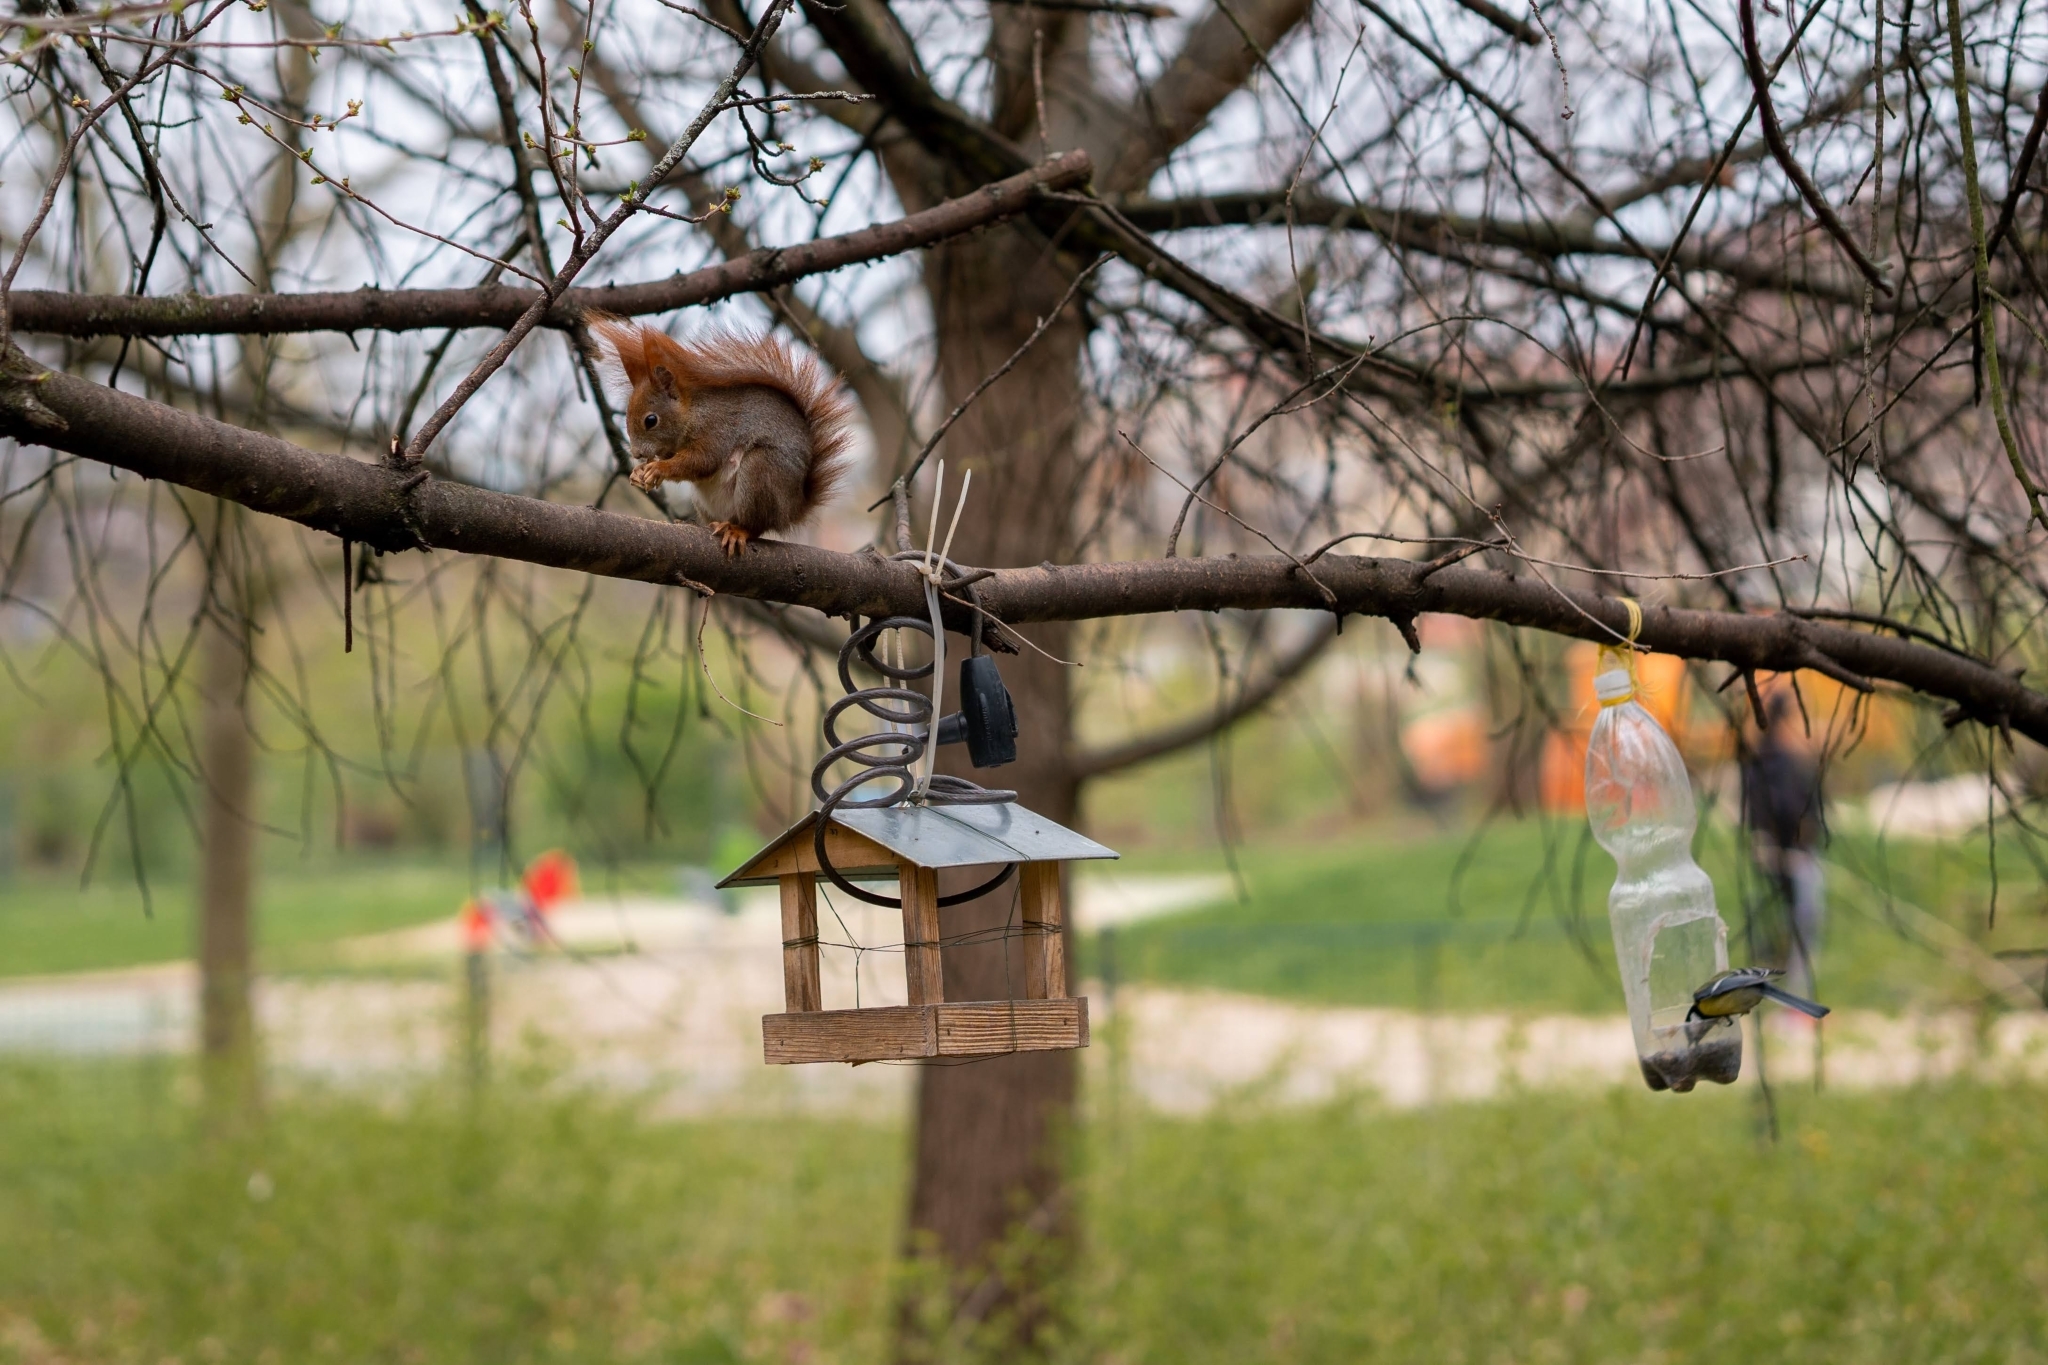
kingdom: Animalia
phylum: Chordata
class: Mammalia
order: Rodentia
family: Sciuridae
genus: Sciurus
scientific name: Sciurus vulgaris
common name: Eurasian red squirrel
